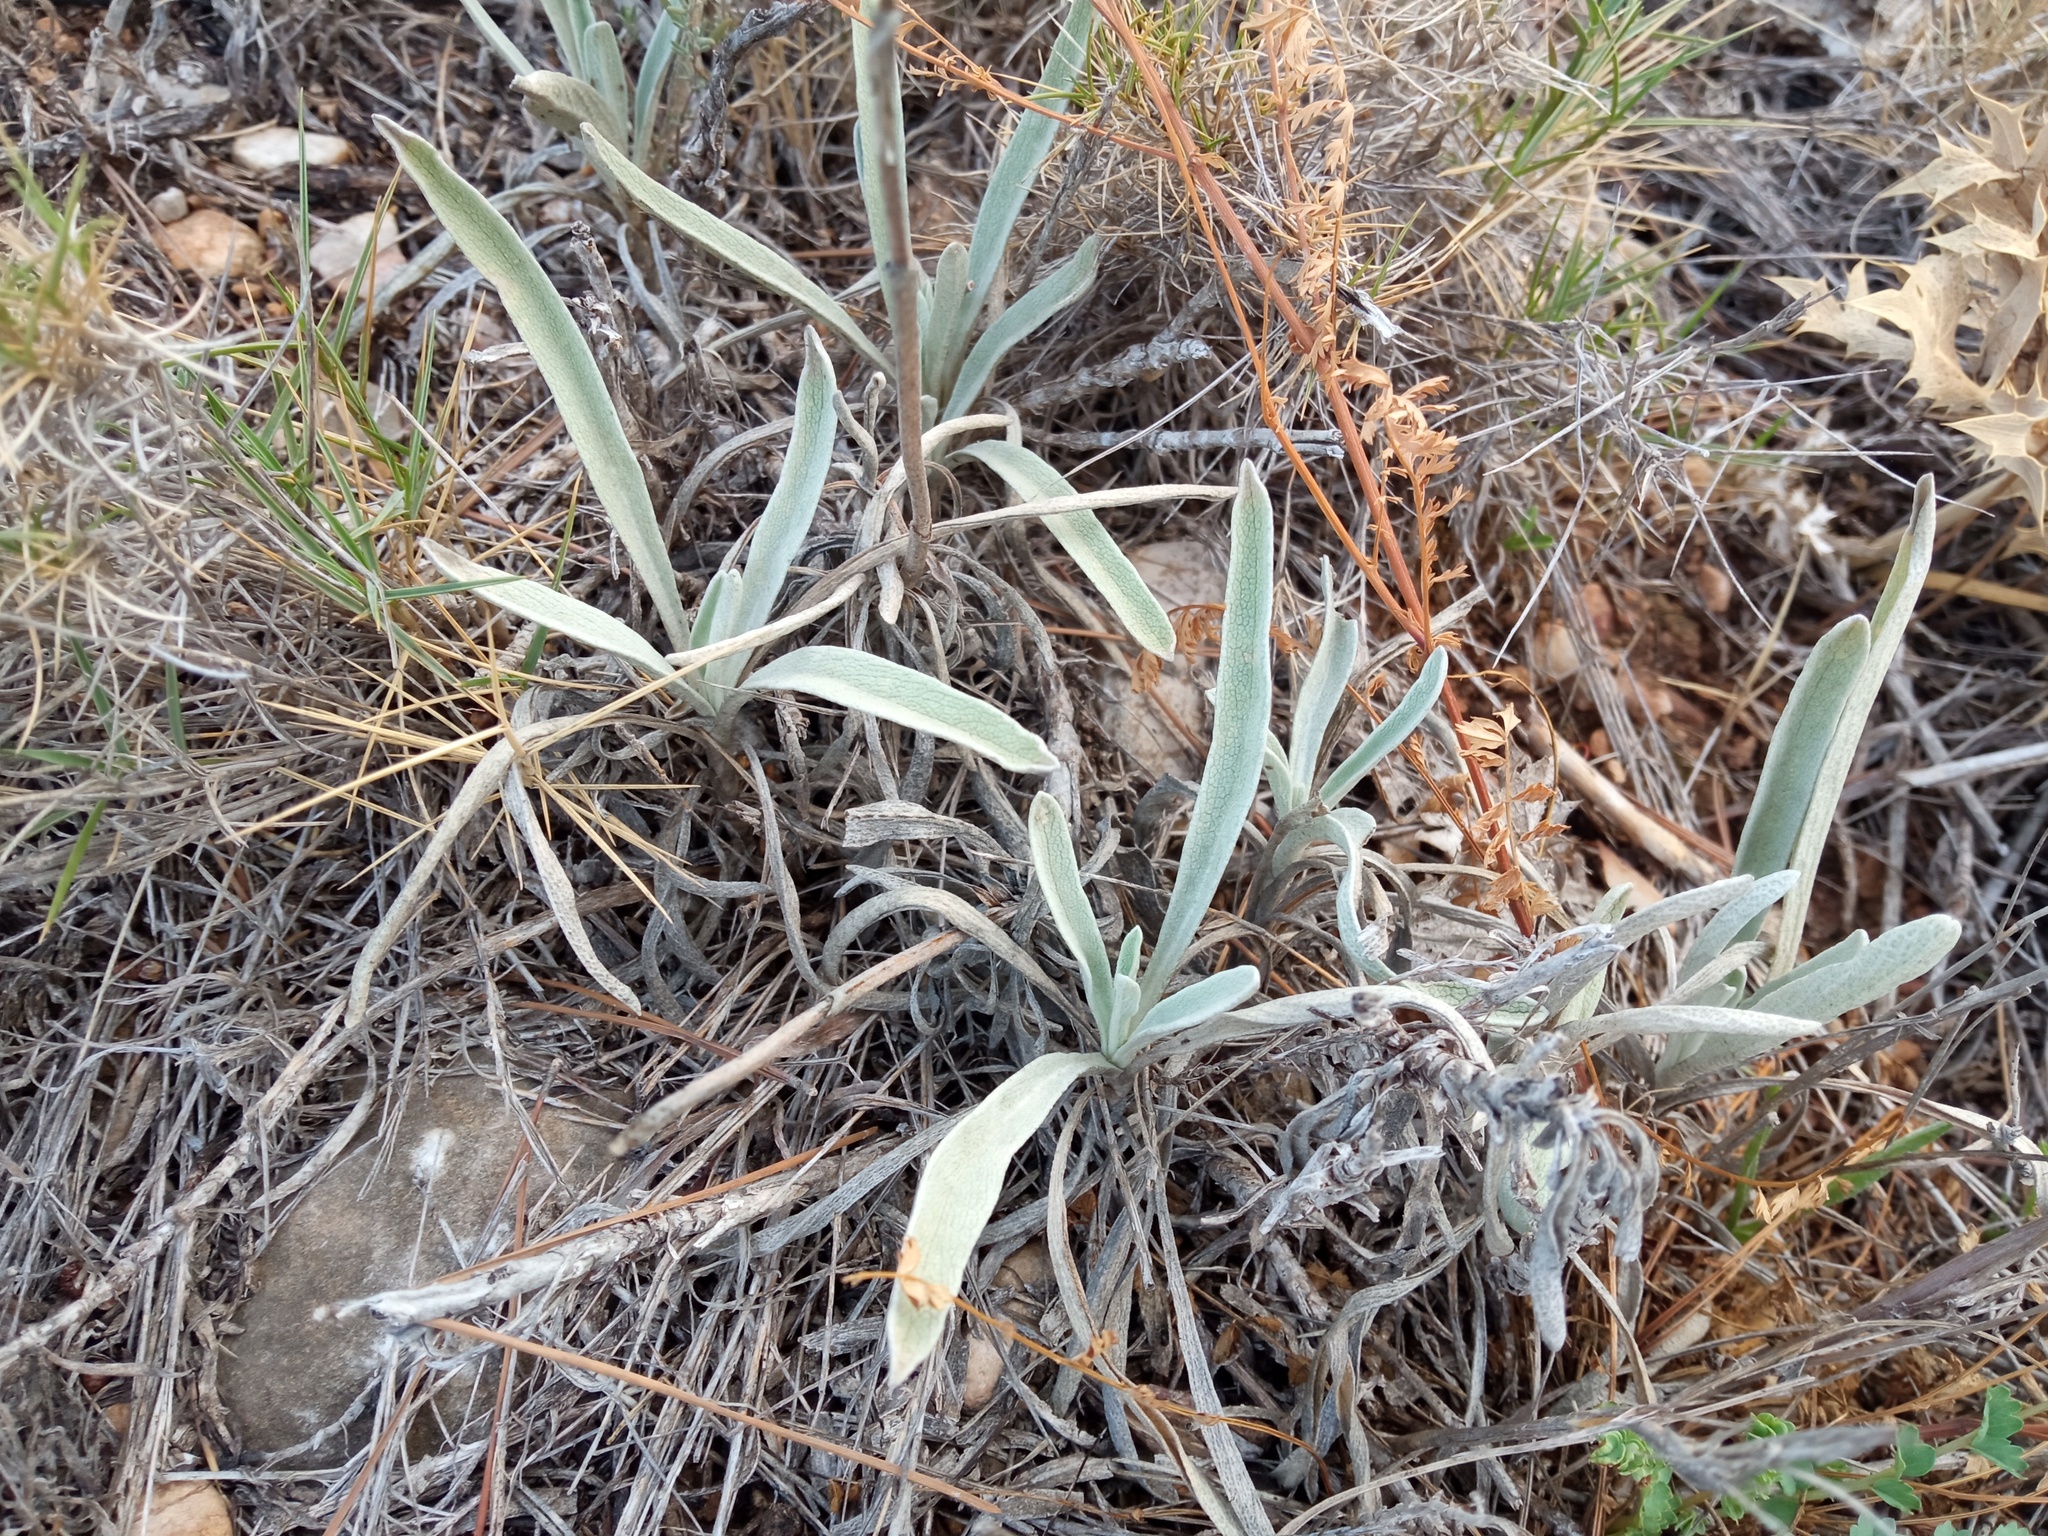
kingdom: Plantae
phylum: Tracheophyta
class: Magnoliopsida
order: Lamiales
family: Lamiaceae
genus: Phlomis
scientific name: Phlomis lychnitis
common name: Lampwickplant
